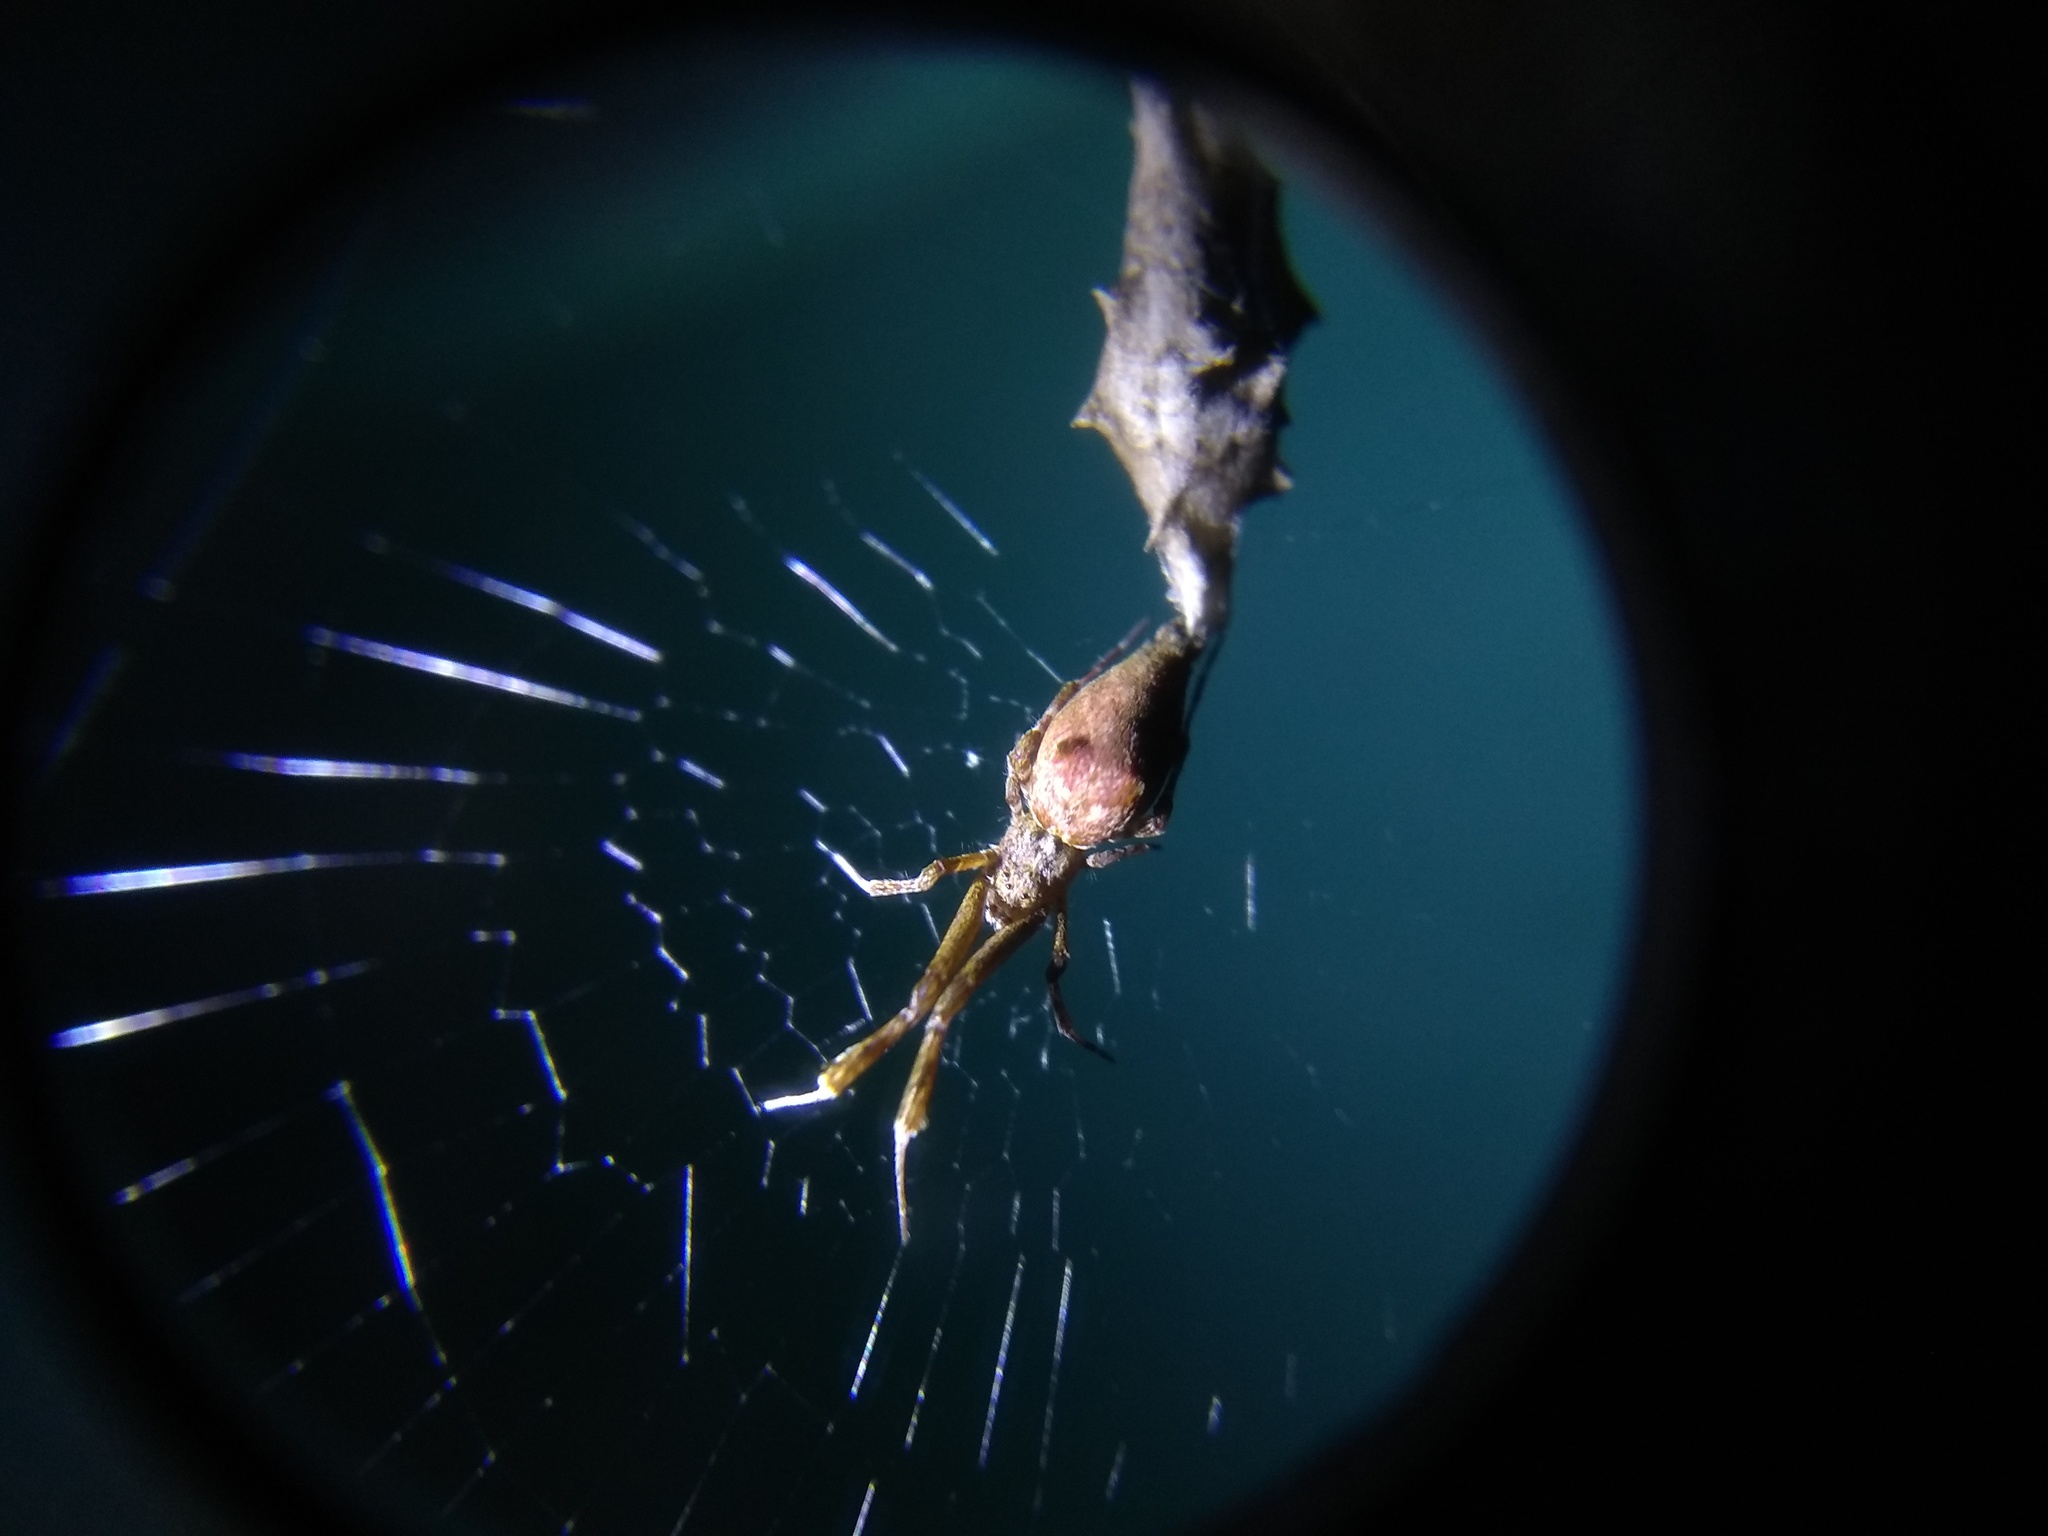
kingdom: Animalia
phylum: Arthropoda
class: Arachnida
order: Araneae
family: Uloboridae
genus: Uloborus
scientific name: Uloborus glomosus
